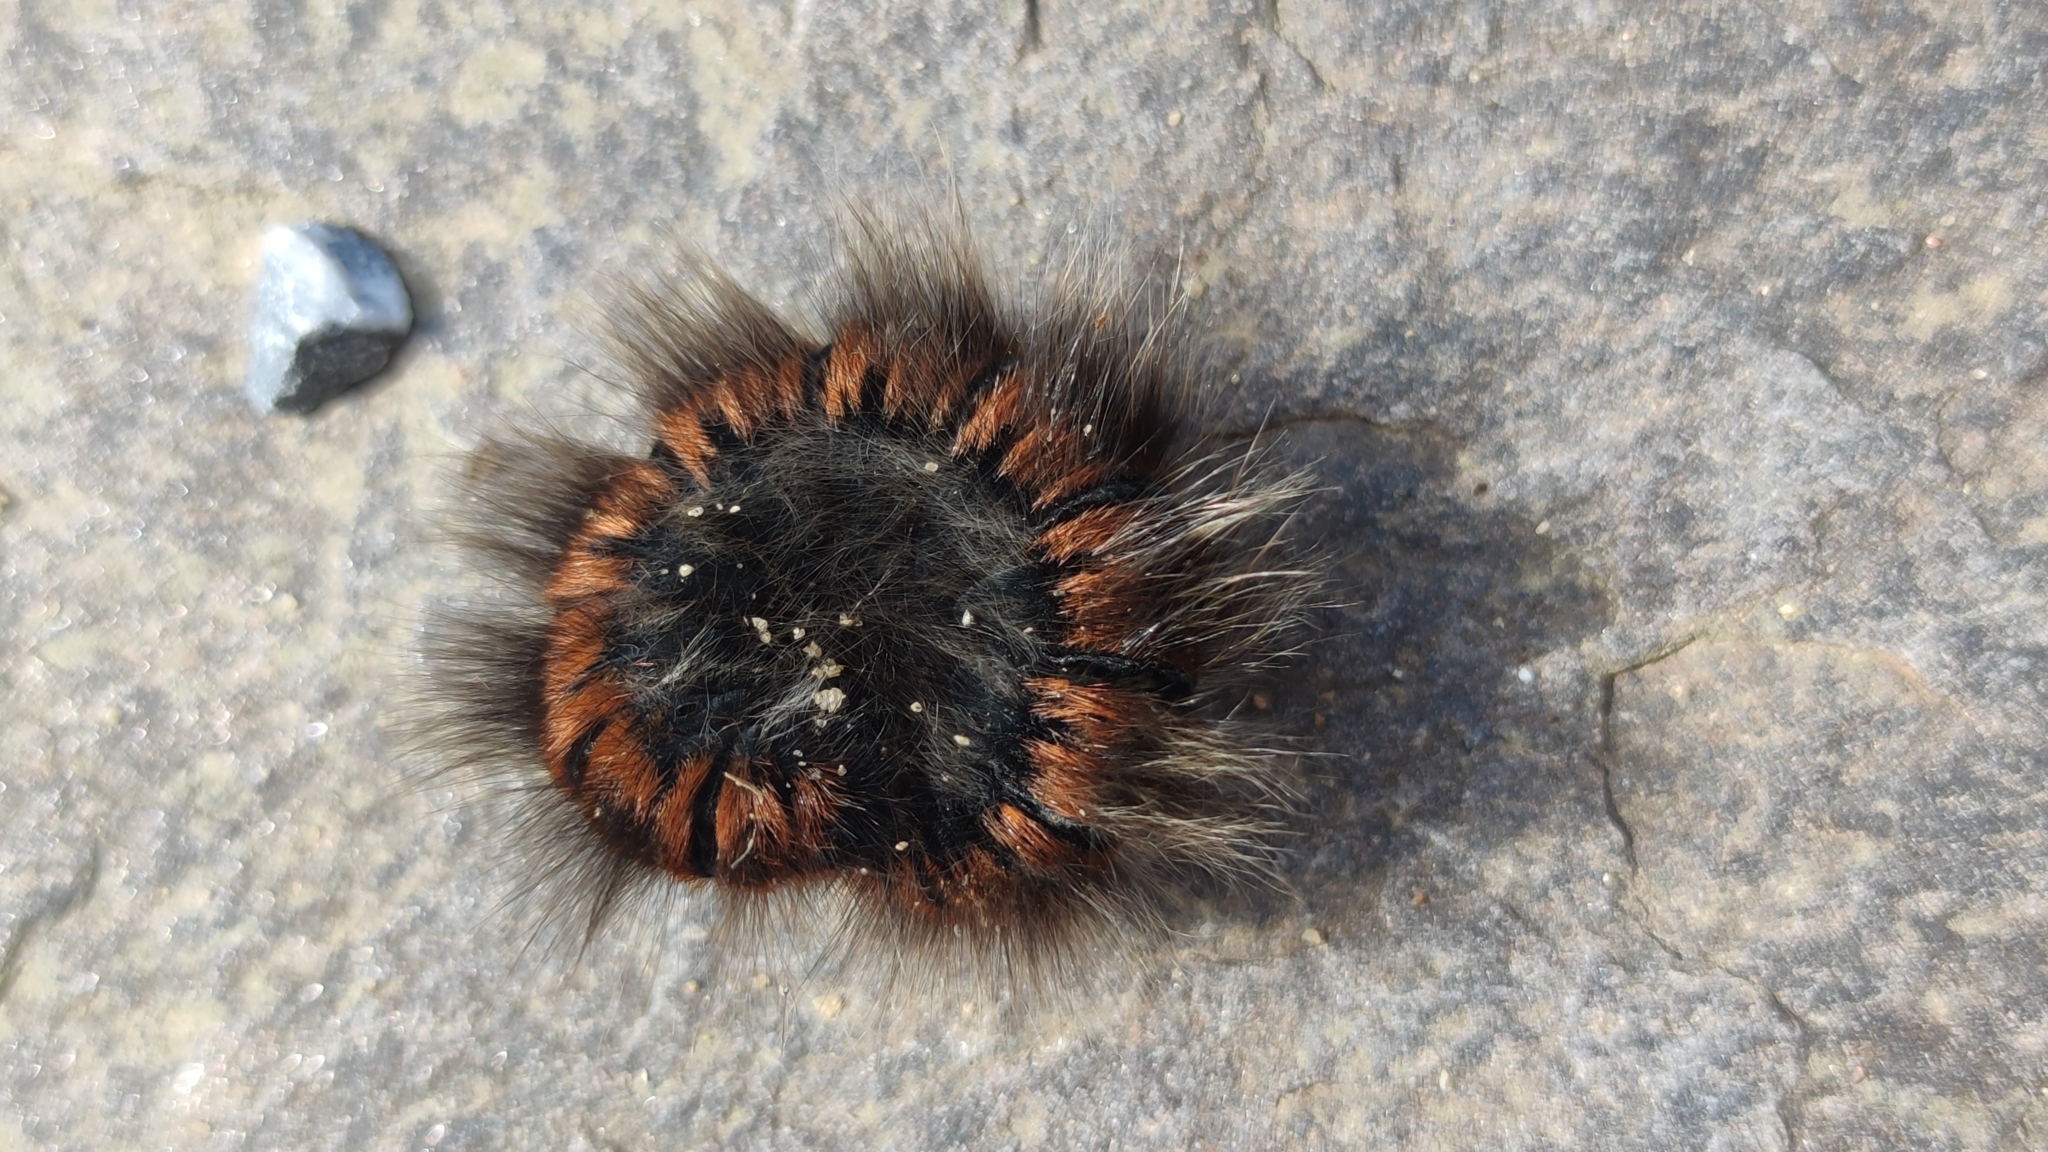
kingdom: Animalia
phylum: Arthropoda
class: Insecta
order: Lepidoptera
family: Lasiocampidae
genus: Macrothylacia
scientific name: Macrothylacia rubi
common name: Fox moth
